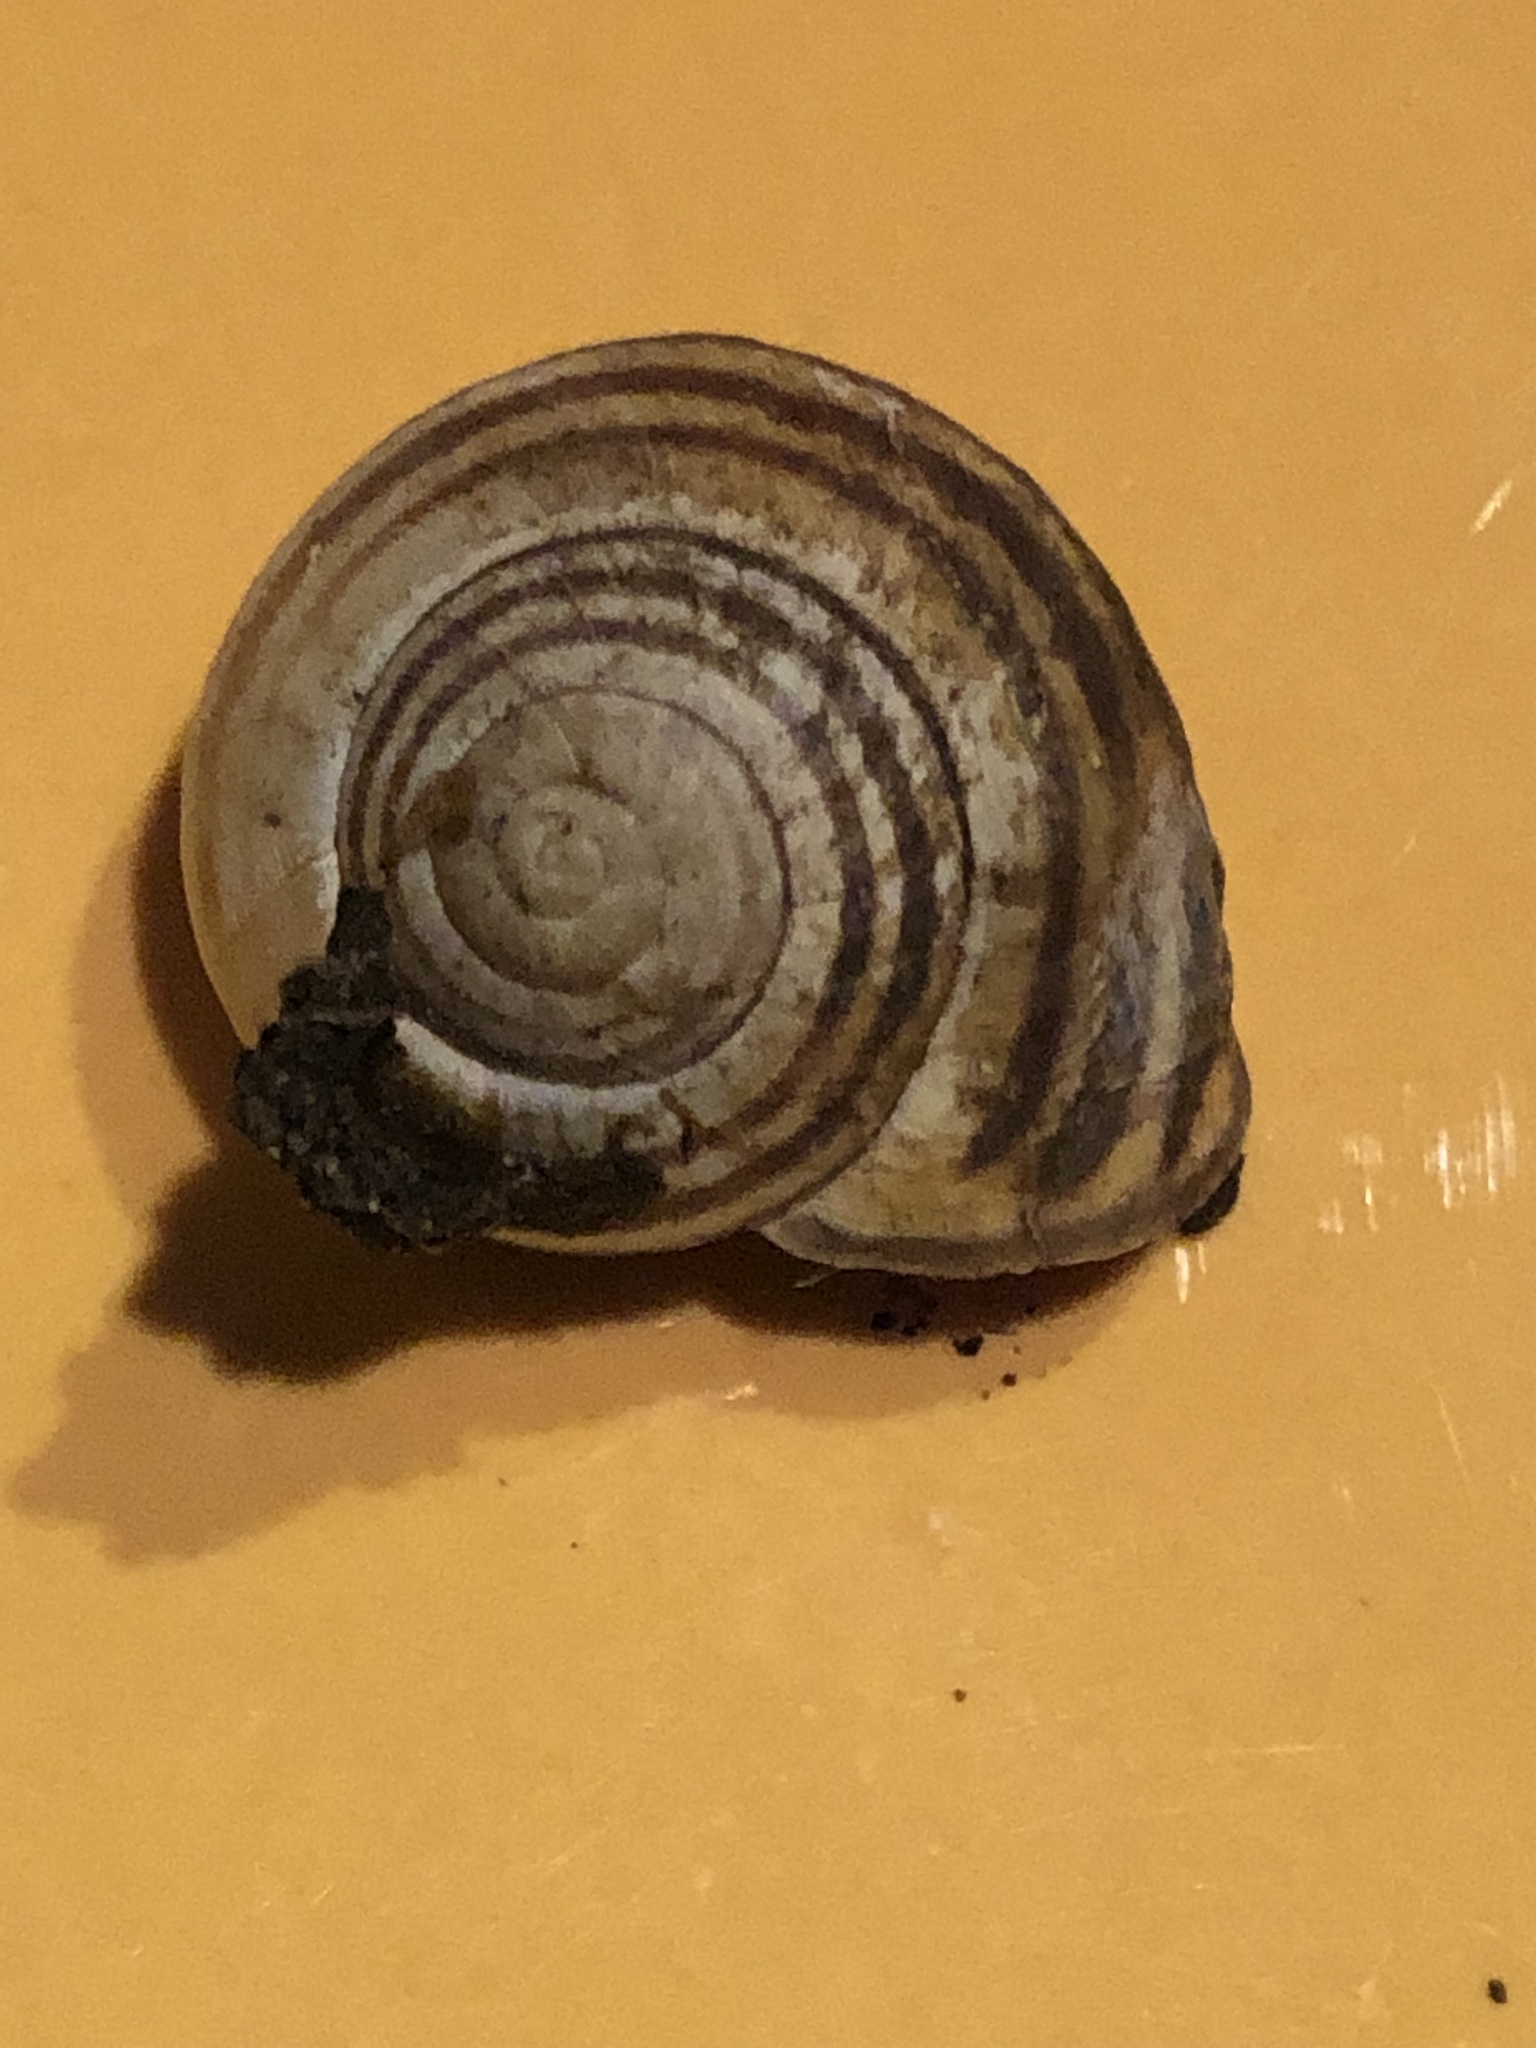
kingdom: Animalia
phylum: Mollusca
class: Gastropoda
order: Stylommatophora
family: Helicidae
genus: Cepaea
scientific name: Cepaea nemoralis
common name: Grovesnail
